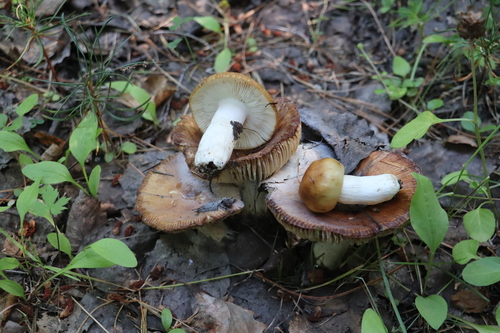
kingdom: Fungi
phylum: Basidiomycota
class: Agaricomycetes
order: Russulales
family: Russulaceae
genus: Russula
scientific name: Russula foetens
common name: Foetid russula
